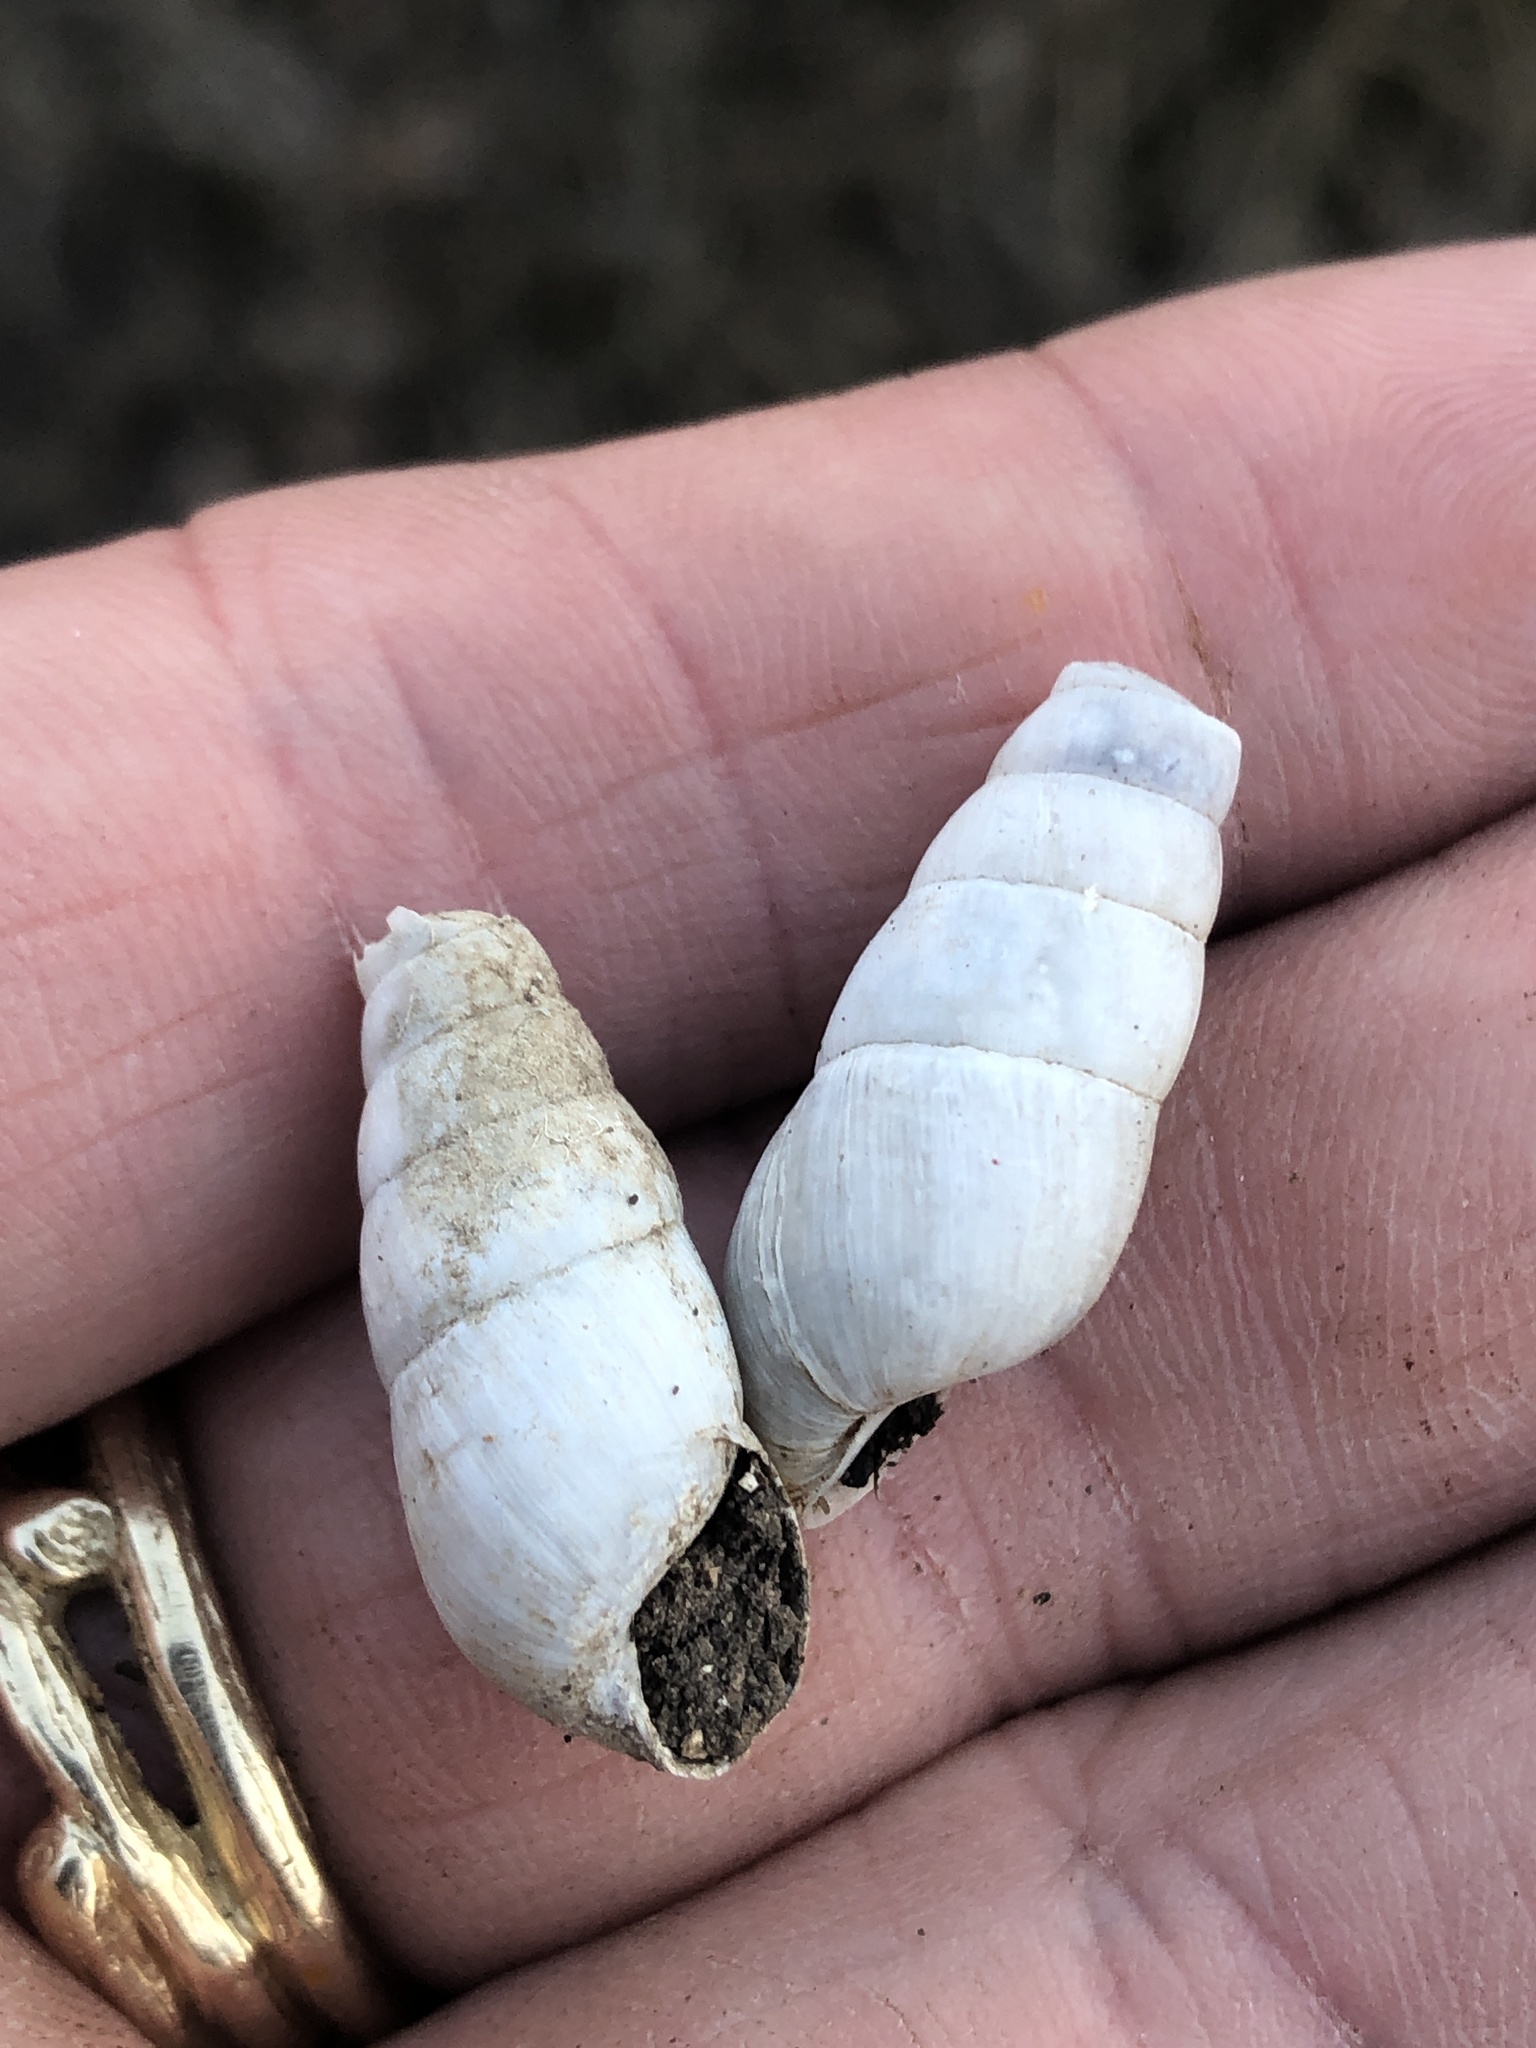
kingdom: Animalia
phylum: Mollusca
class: Gastropoda
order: Stylommatophora
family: Achatinidae
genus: Rumina
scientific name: Rumina decollata
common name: Decollate snail
